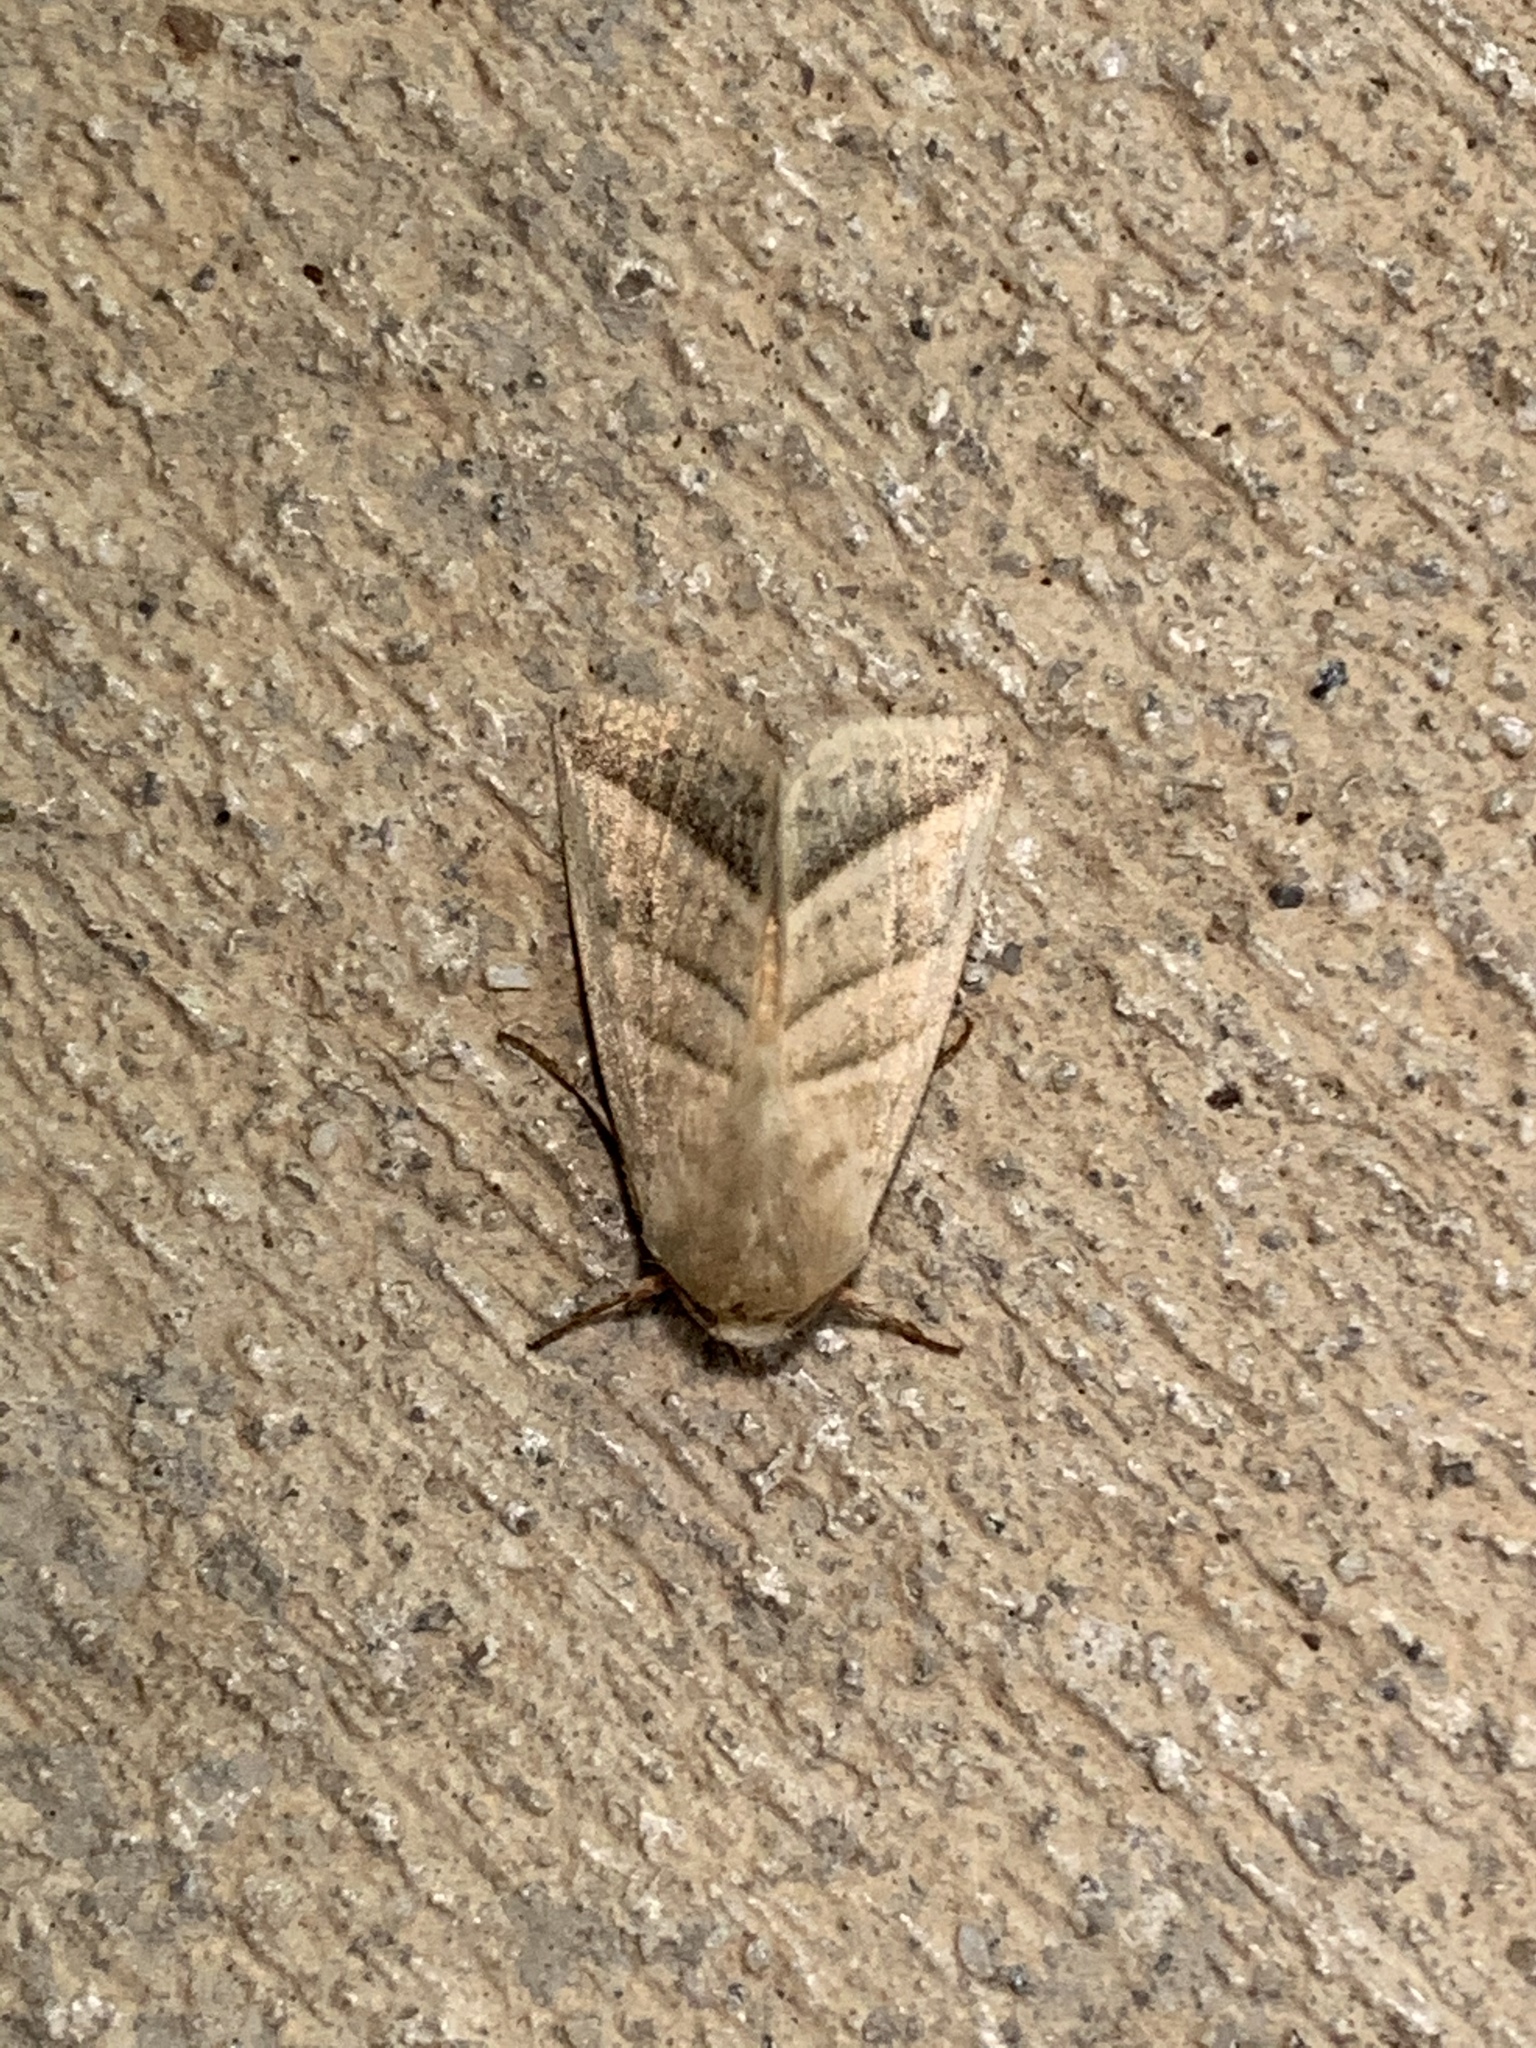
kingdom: Animalia
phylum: Arthropoda
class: Insecta
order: Lepidoptera
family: Noctuidae
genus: Chloridea
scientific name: Chloridea virescens
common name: Tobacco budworm
